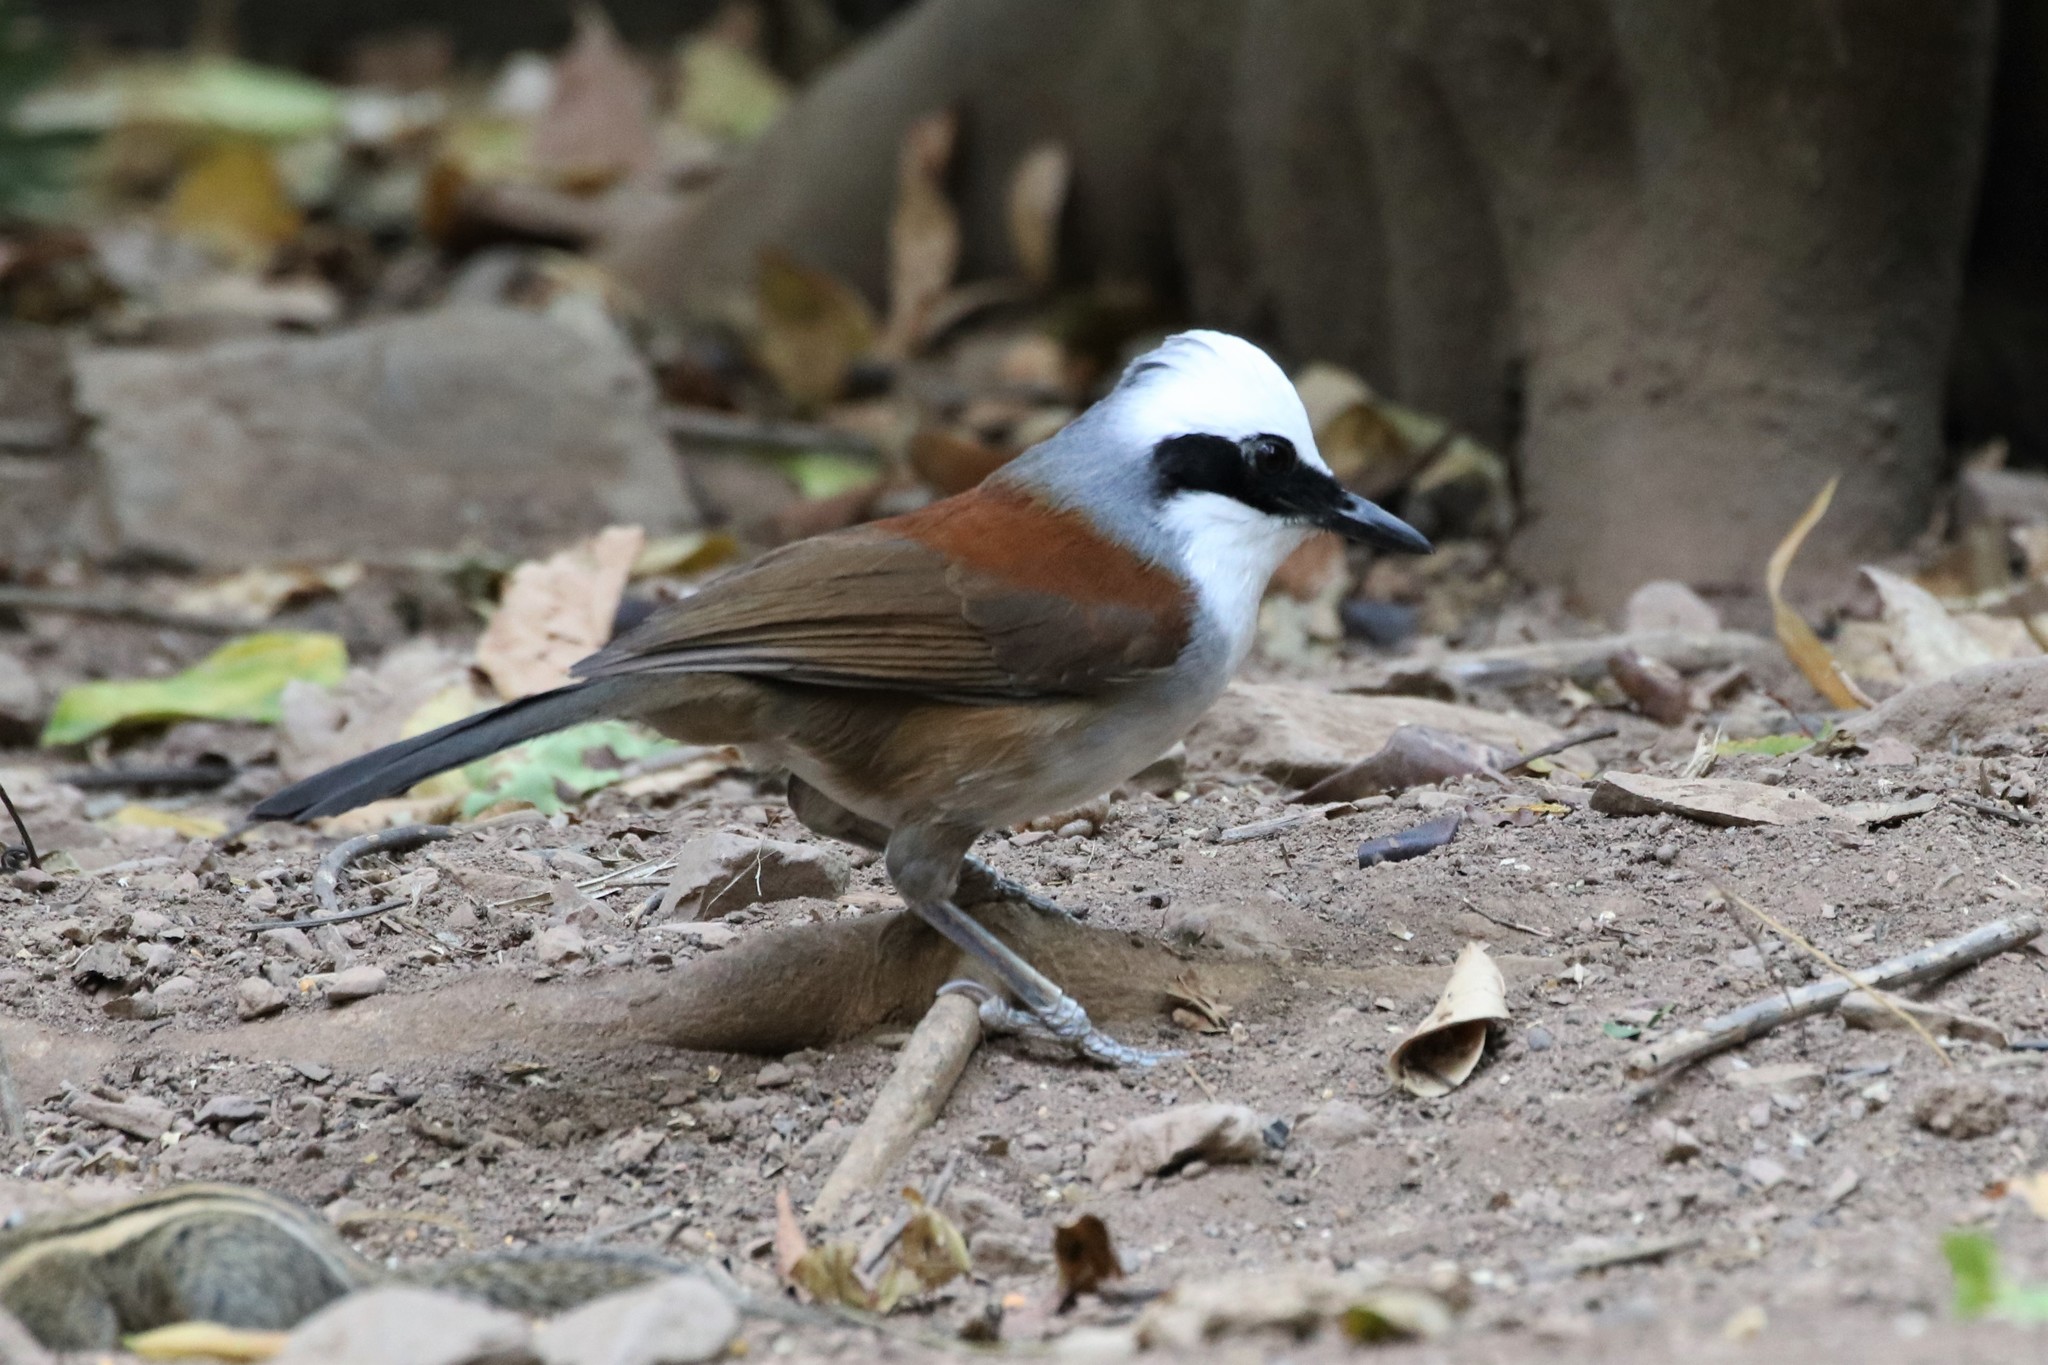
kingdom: Animalia
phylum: Chordata
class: Aves
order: Passeriformes
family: Leiothrichidae
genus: Garrulax
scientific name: Garrulax leucolophus
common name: White-crested laughingthrush
